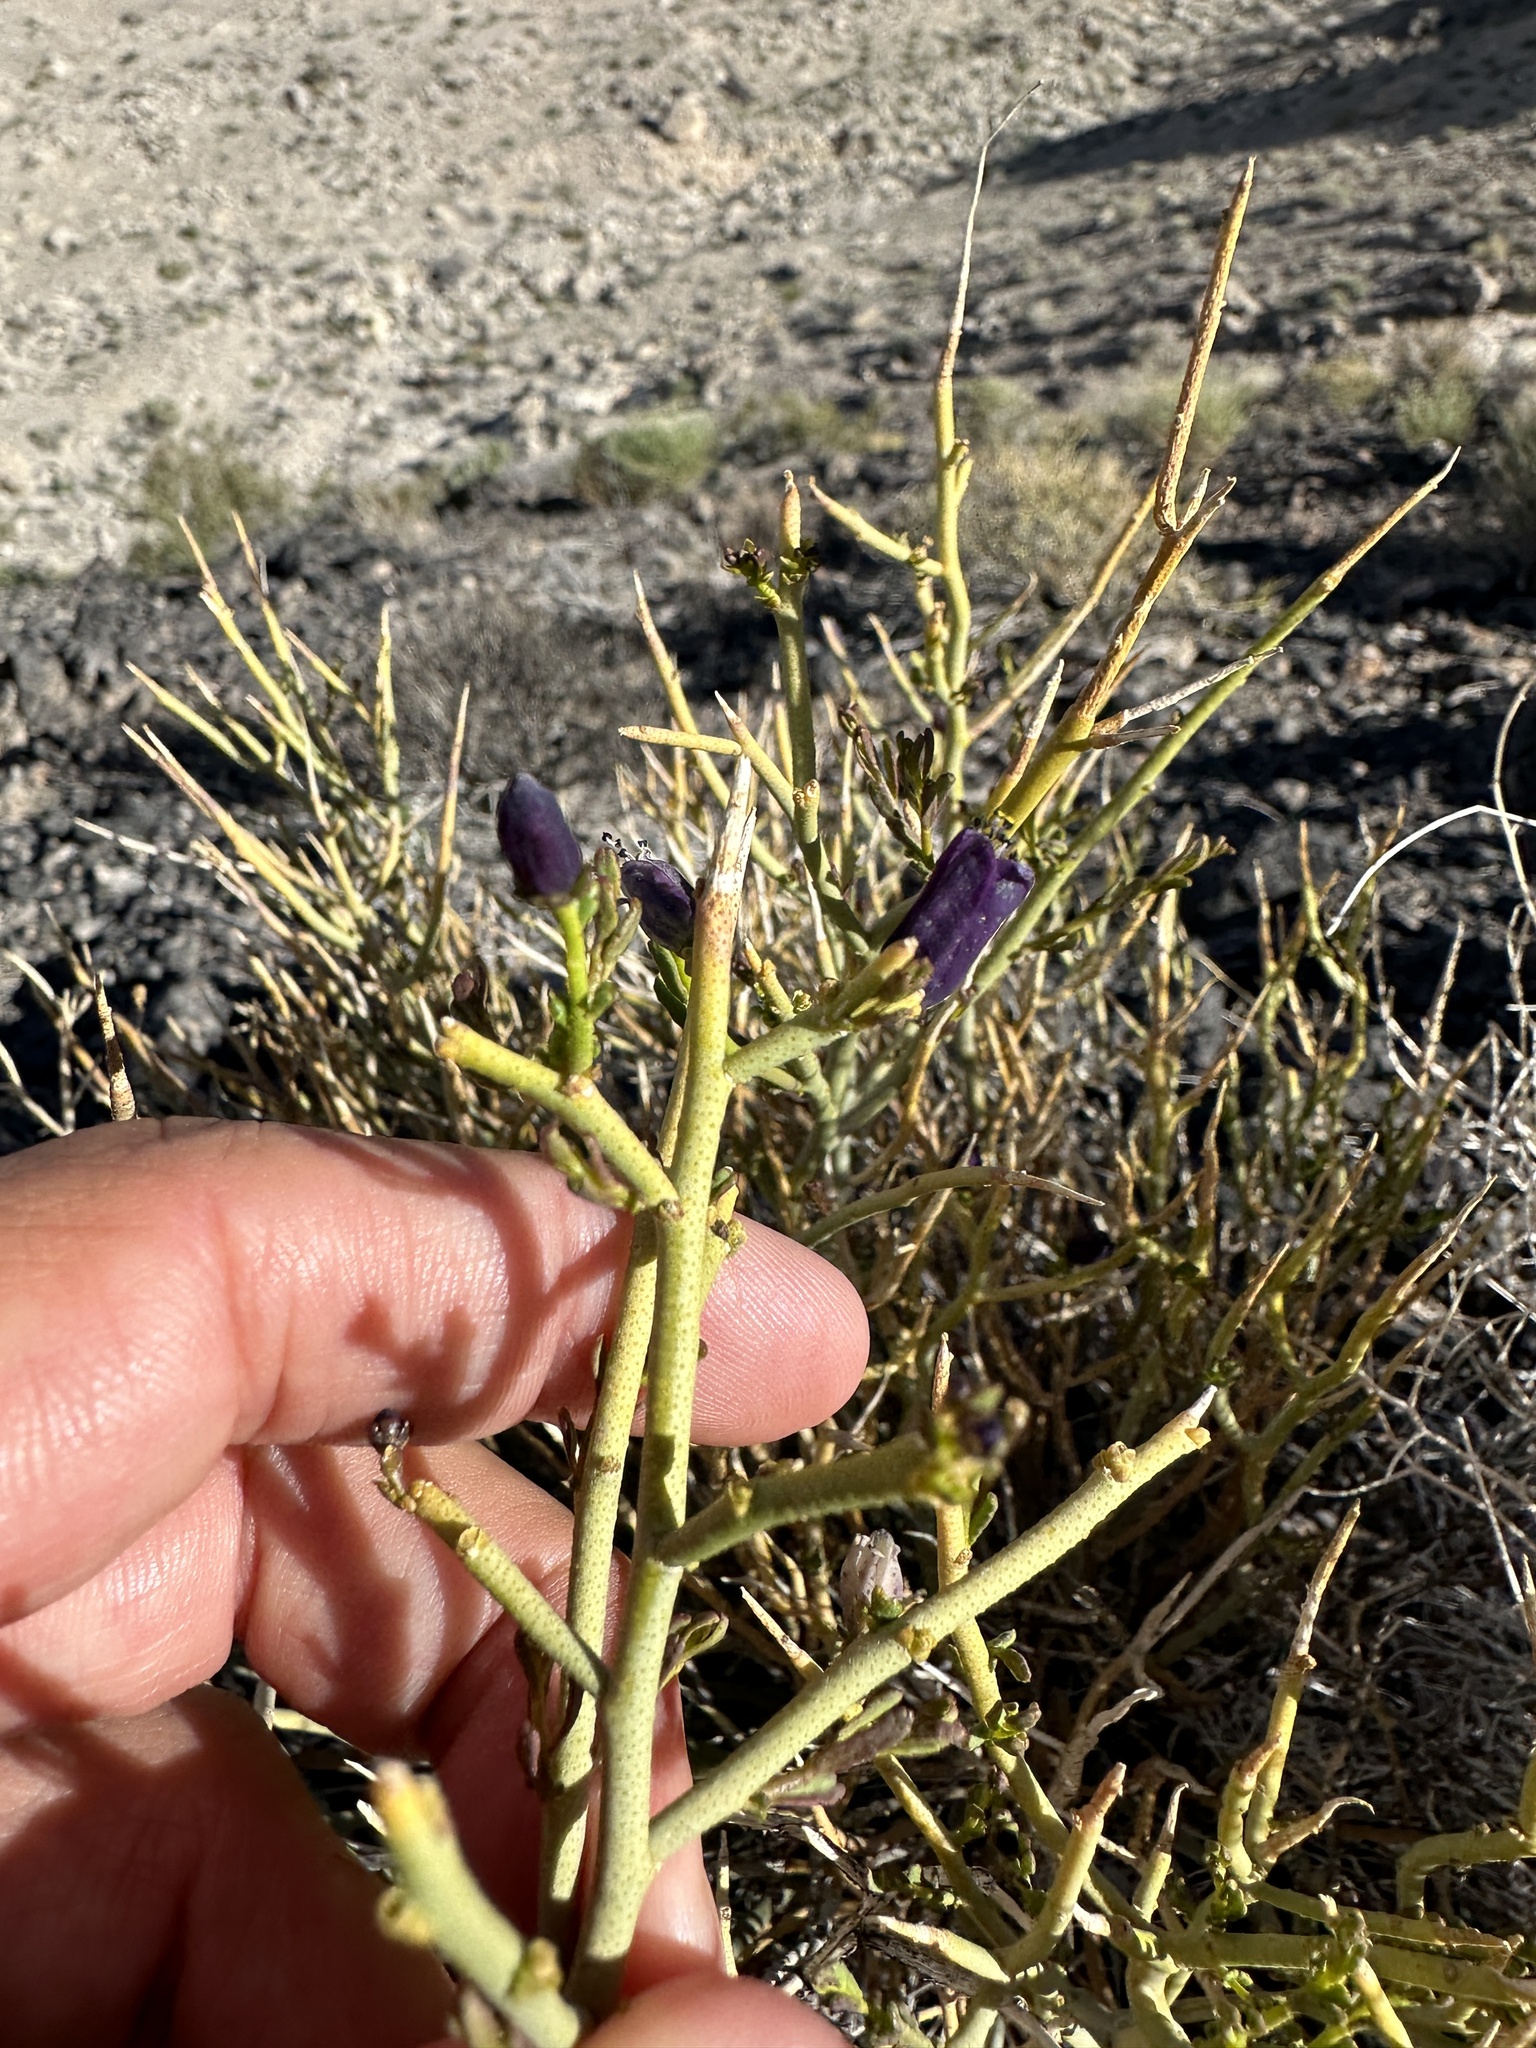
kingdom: Plantae
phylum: Tracheophyta
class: Magnoliopsida
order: Sapindales
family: Rutaceae
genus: Thamnosma
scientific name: Thamnosma montana
